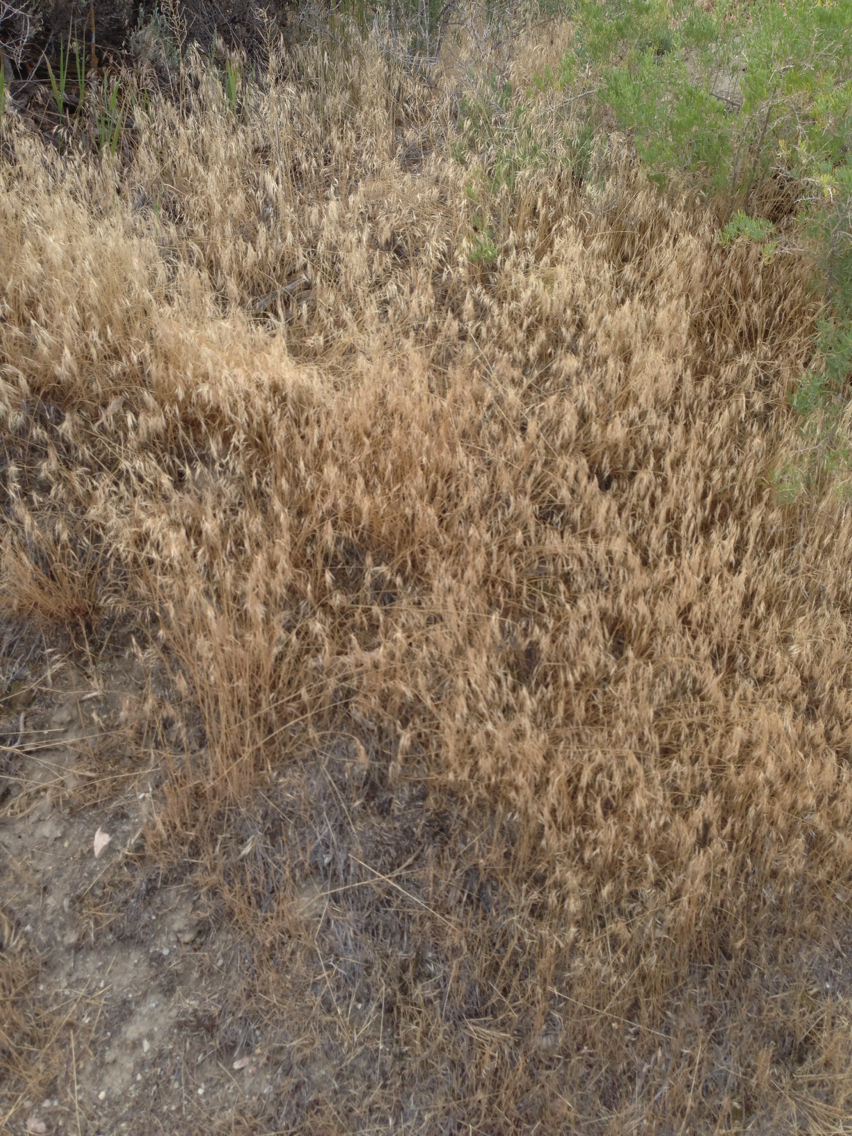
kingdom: Plantae
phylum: Tracheophyta
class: Liliopsida
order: Poales
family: Poaceae
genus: Bromus
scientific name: Bromus tectorum
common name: Cheatgrass
